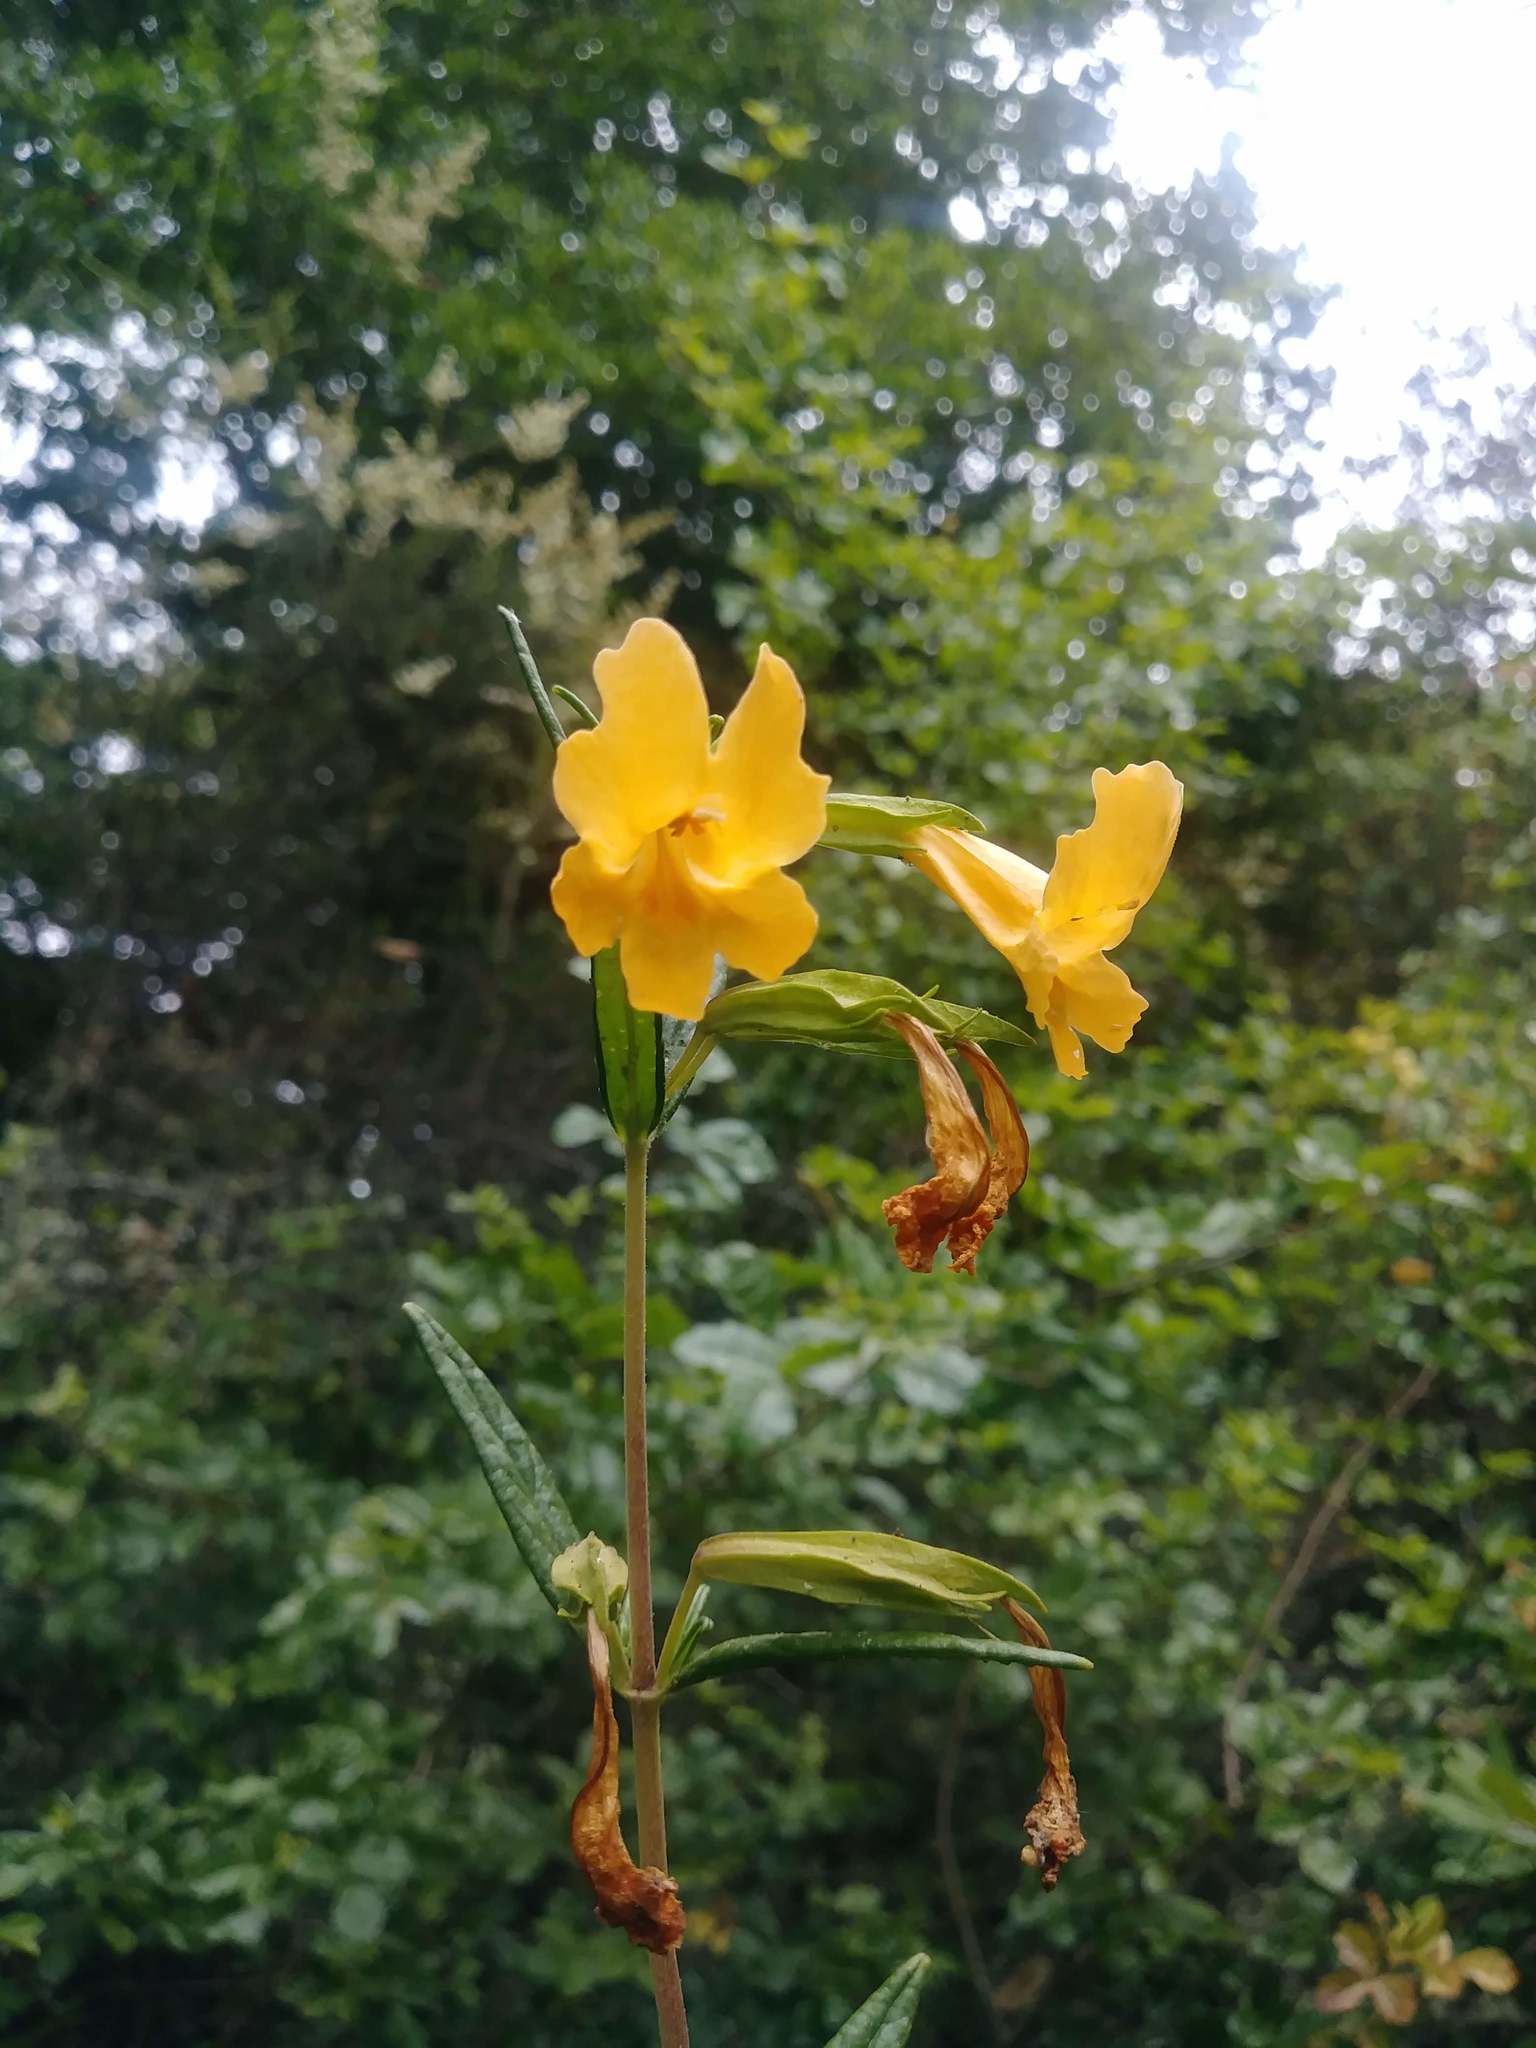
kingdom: Plantae
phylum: Tracheophyta
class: Magnoliopsida
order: Lamiales
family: Phrymaceae
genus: Diplacus
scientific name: Diplacus aurantiacus
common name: Bush monkey-flower
